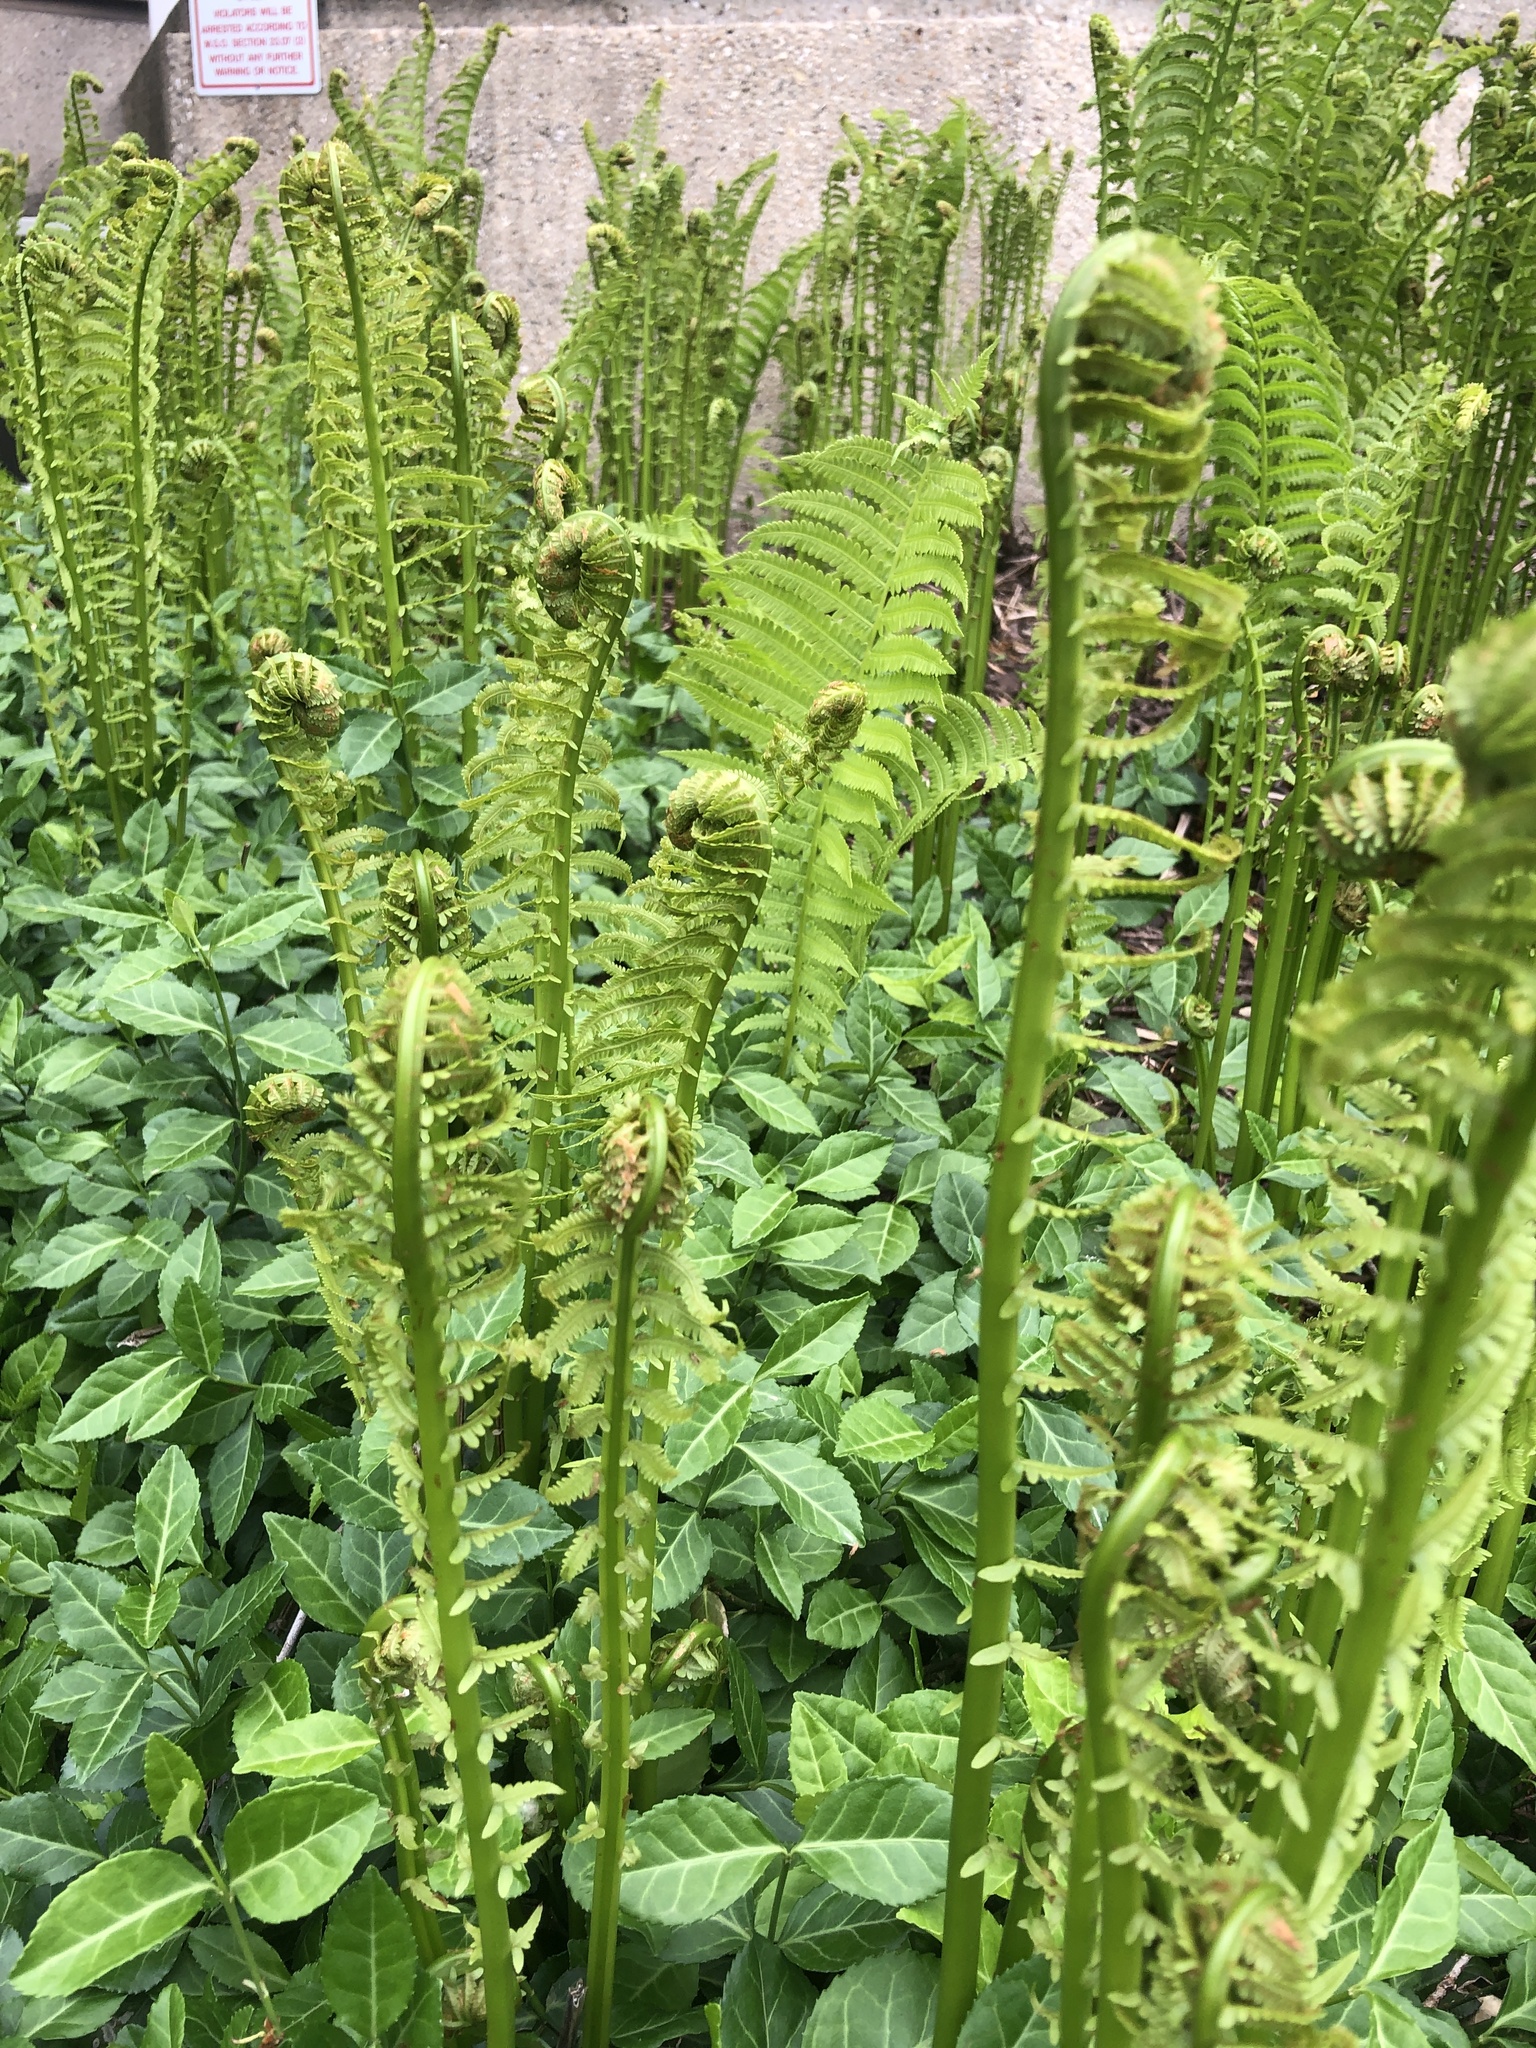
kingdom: Plantae
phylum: Tracheophyta
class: Polypodiopsida
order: Polypodiales
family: Onocleaceae
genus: Matteuccia
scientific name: Matteuccia struthiopteris
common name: Ostrich fern
